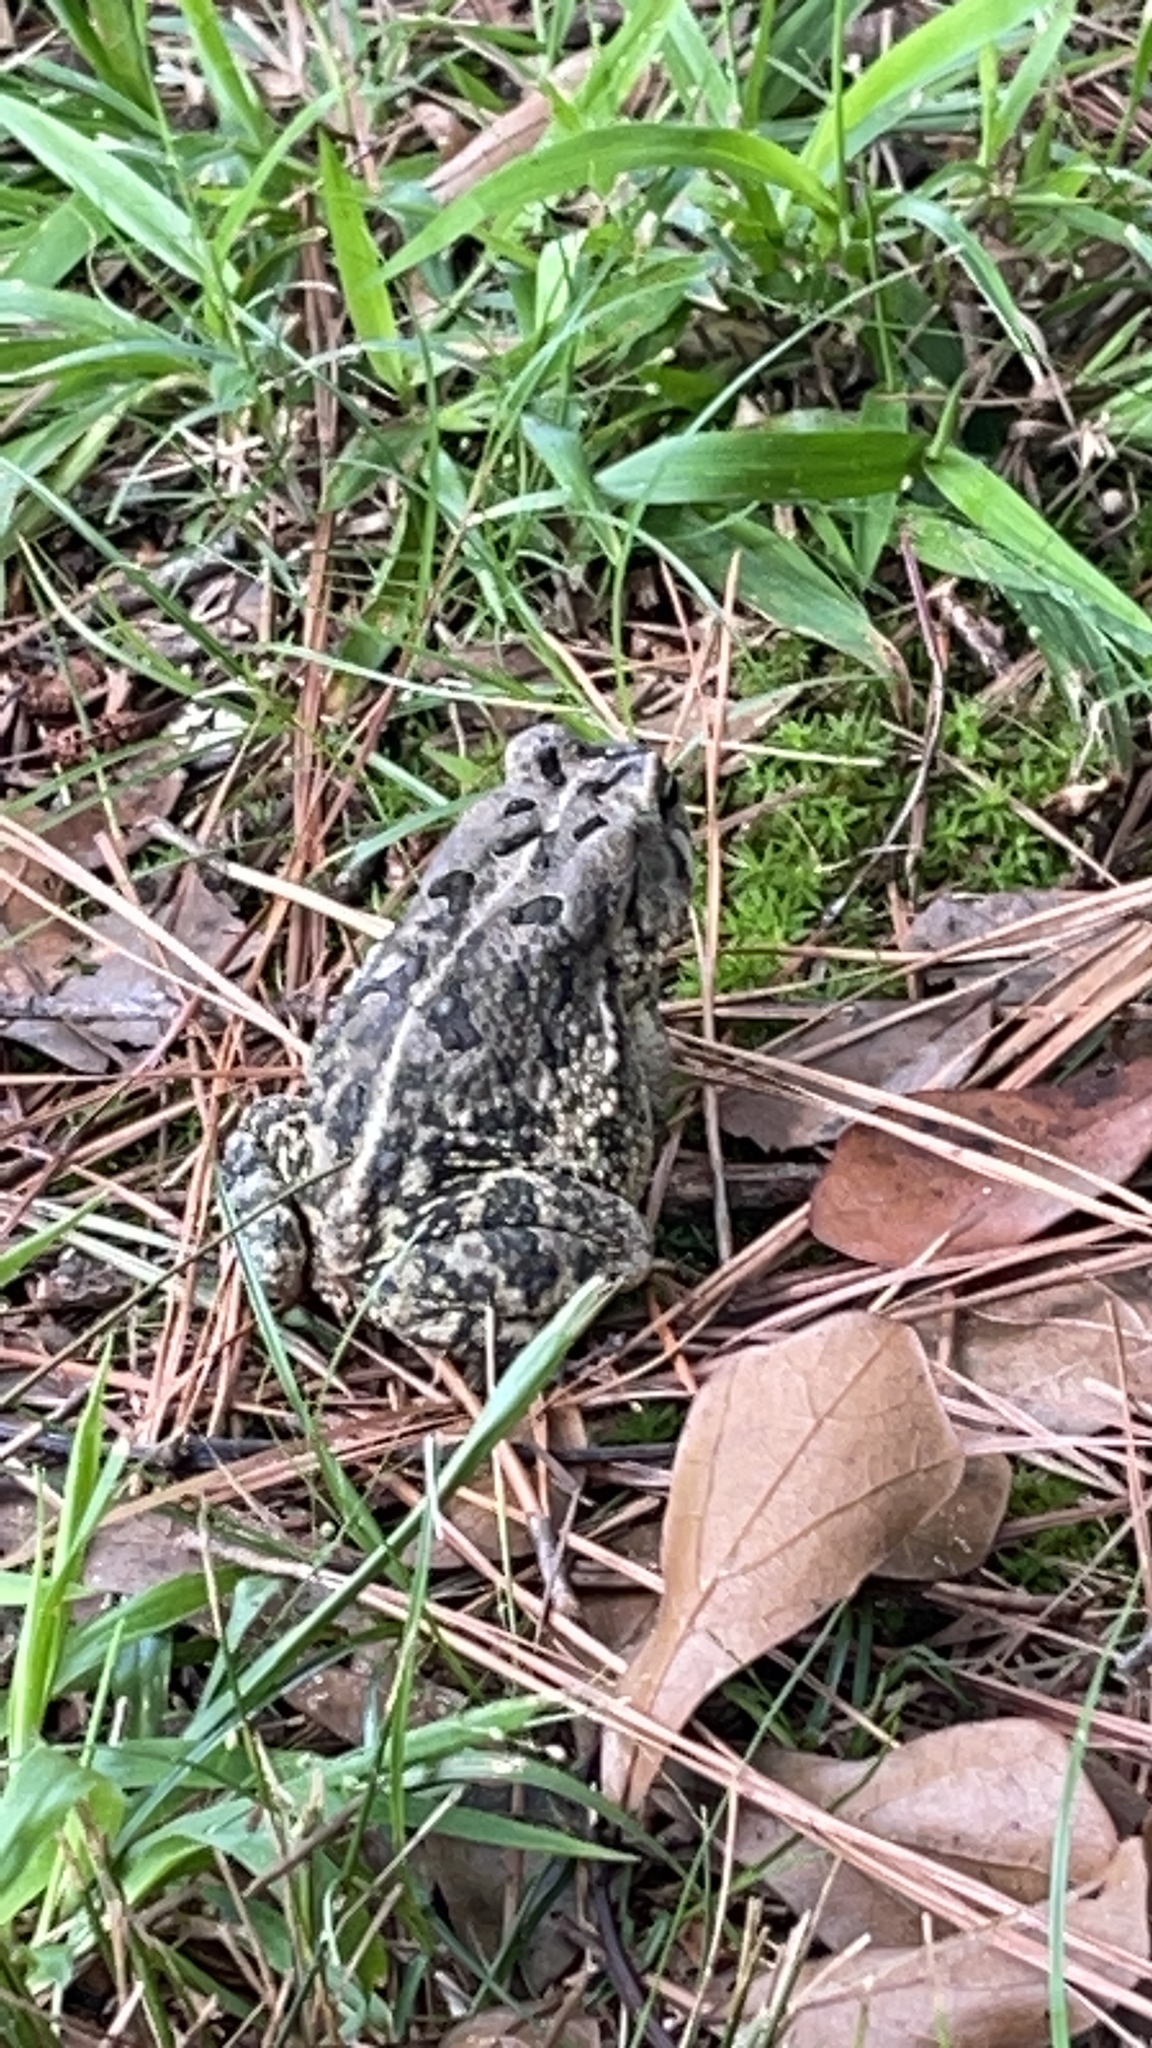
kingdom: Animalia
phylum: Chordata
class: Amphibia
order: Anura
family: Bufonidae
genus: Anaxyrus
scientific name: Anaxyrus fowleri
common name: Fowler's toad
